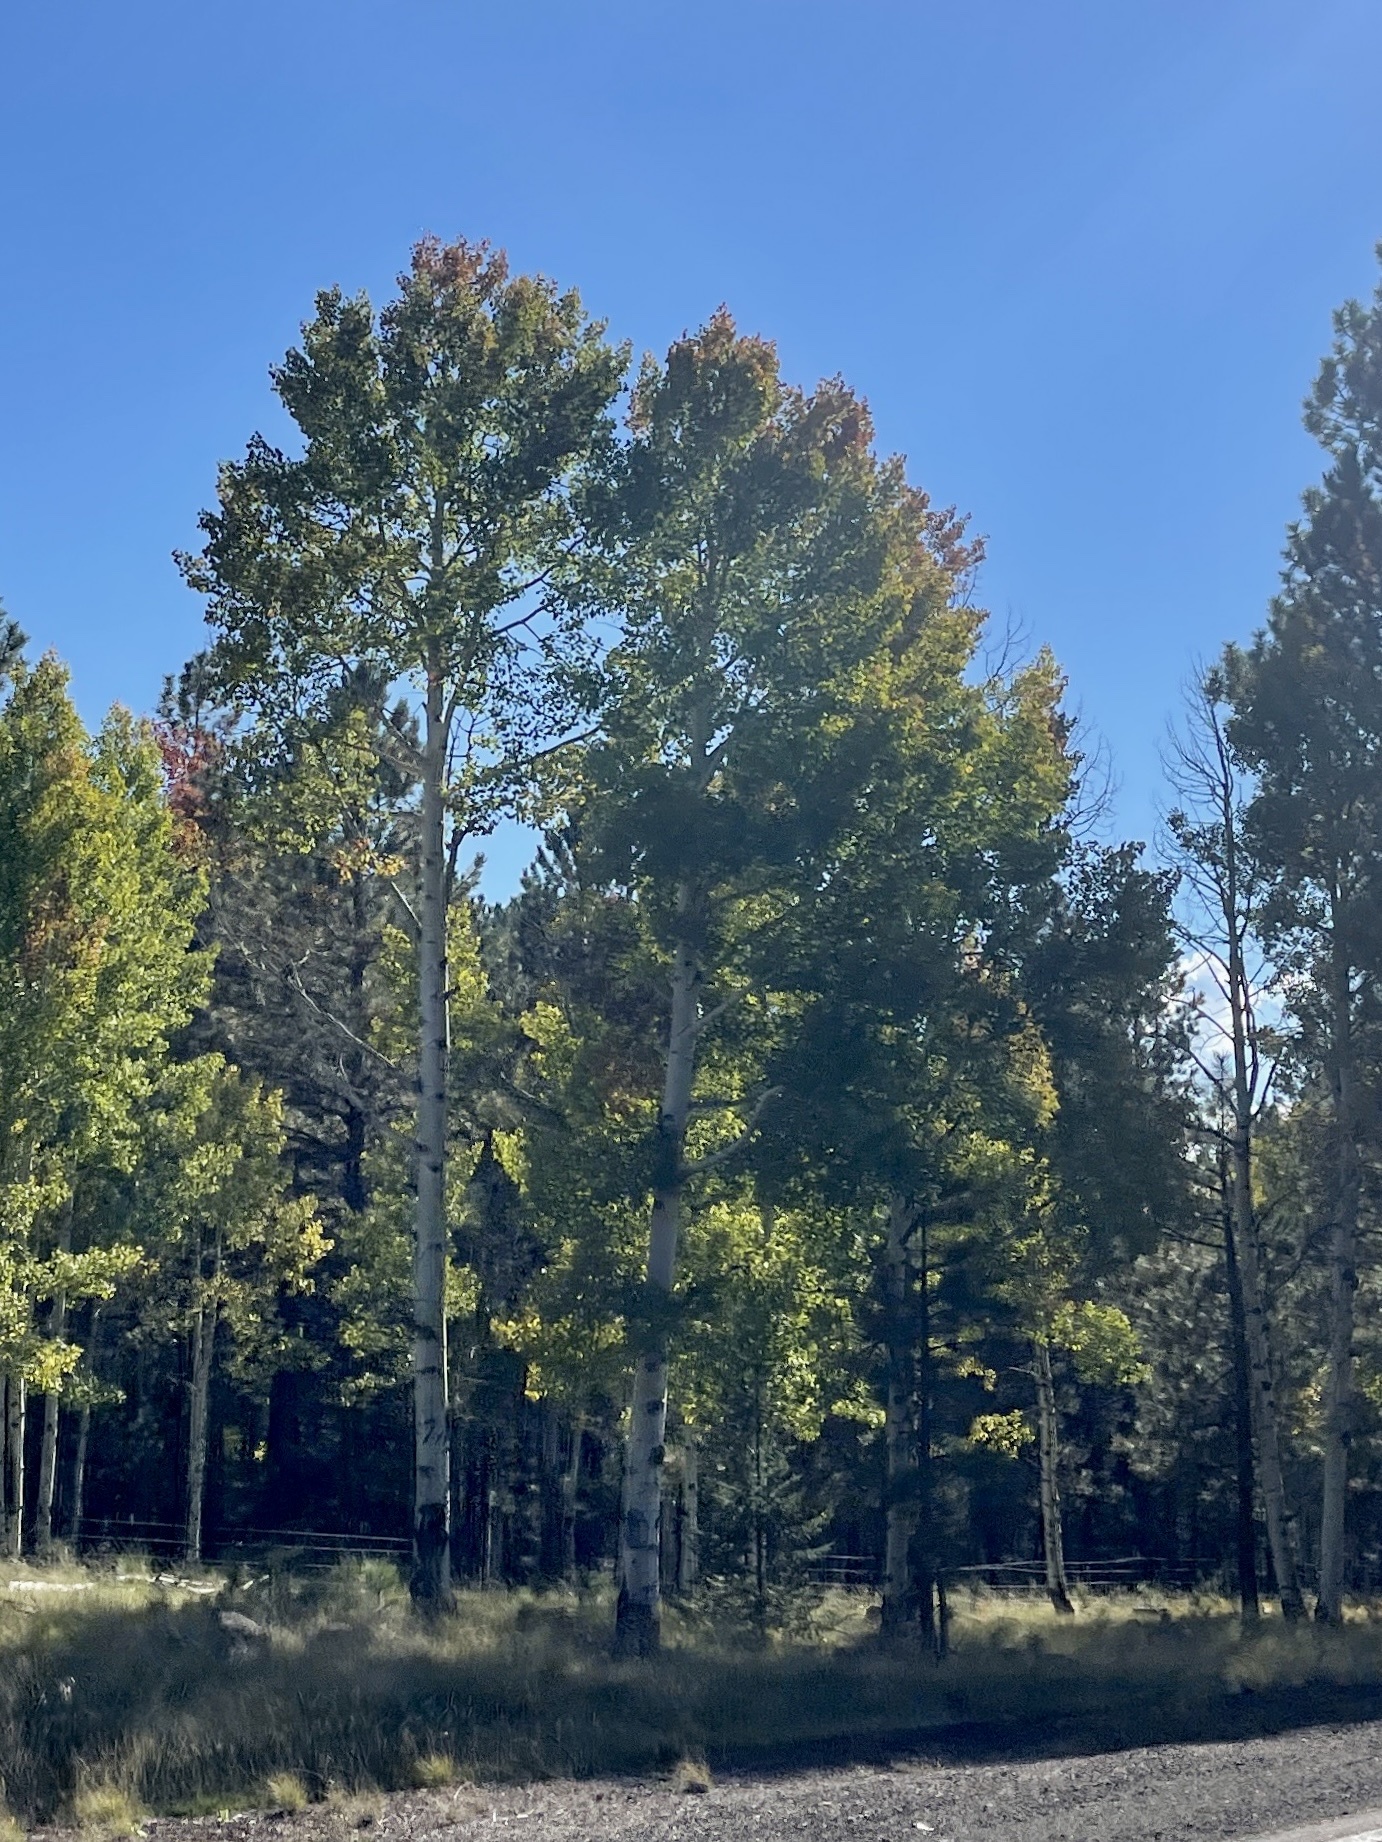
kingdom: Plantae
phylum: Tracheophyta
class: Magnoliopsida
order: Malpighiales
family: Salicaceae
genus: Populus
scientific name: Populus tremuloides
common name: Quaking aspen
